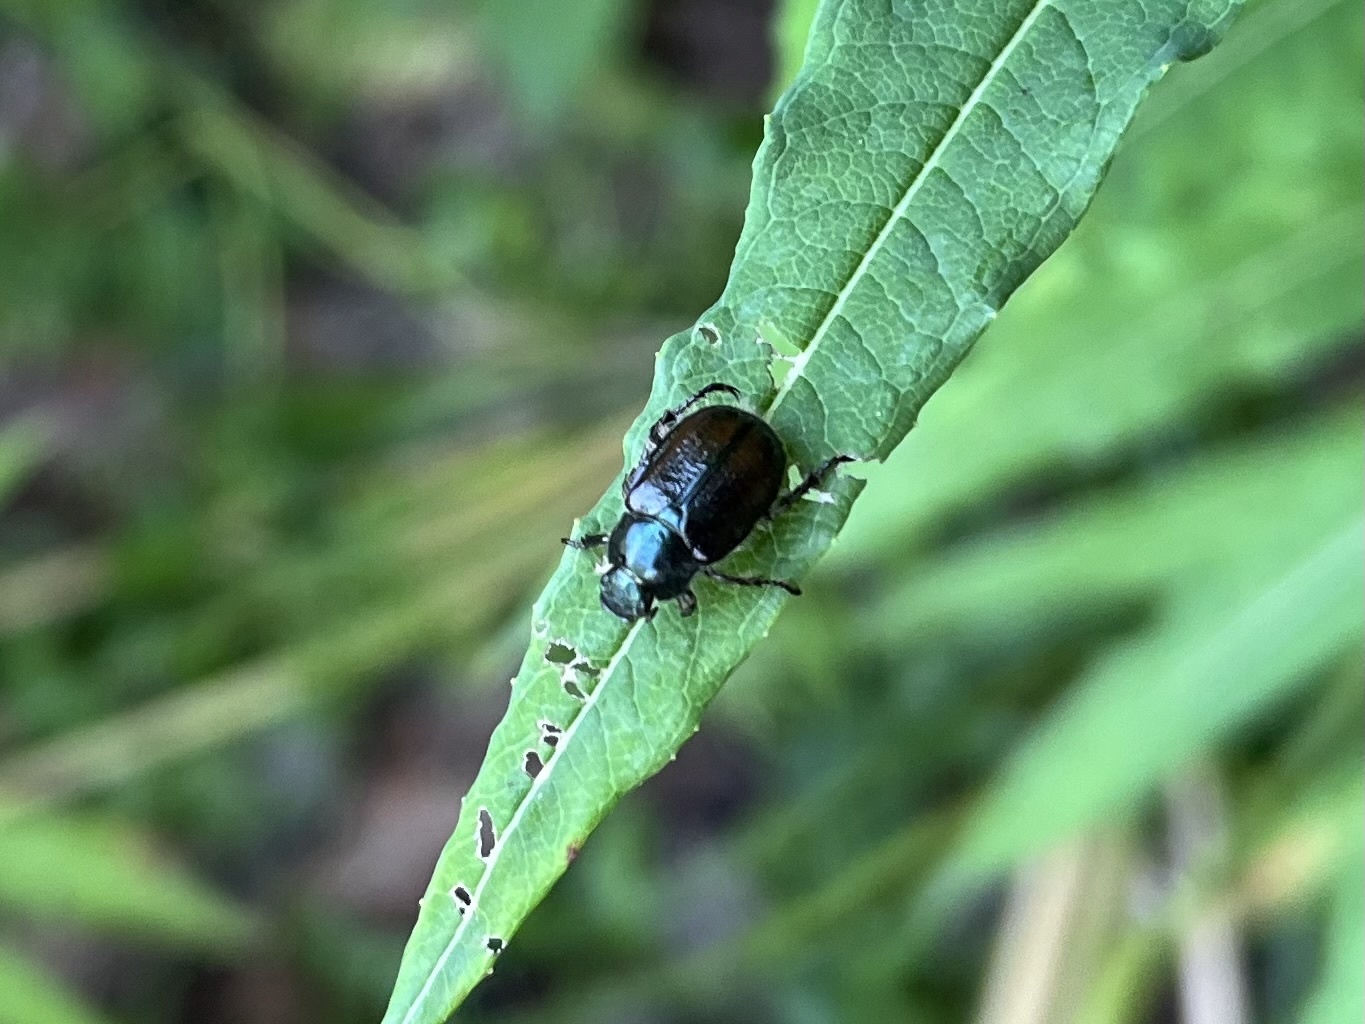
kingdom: Animalia
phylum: Arthropoda
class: Insecta
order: Coleoptera
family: Scarabaeidae
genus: Phyllopertha
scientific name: Phyllopertha horticola
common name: Garden chafer
